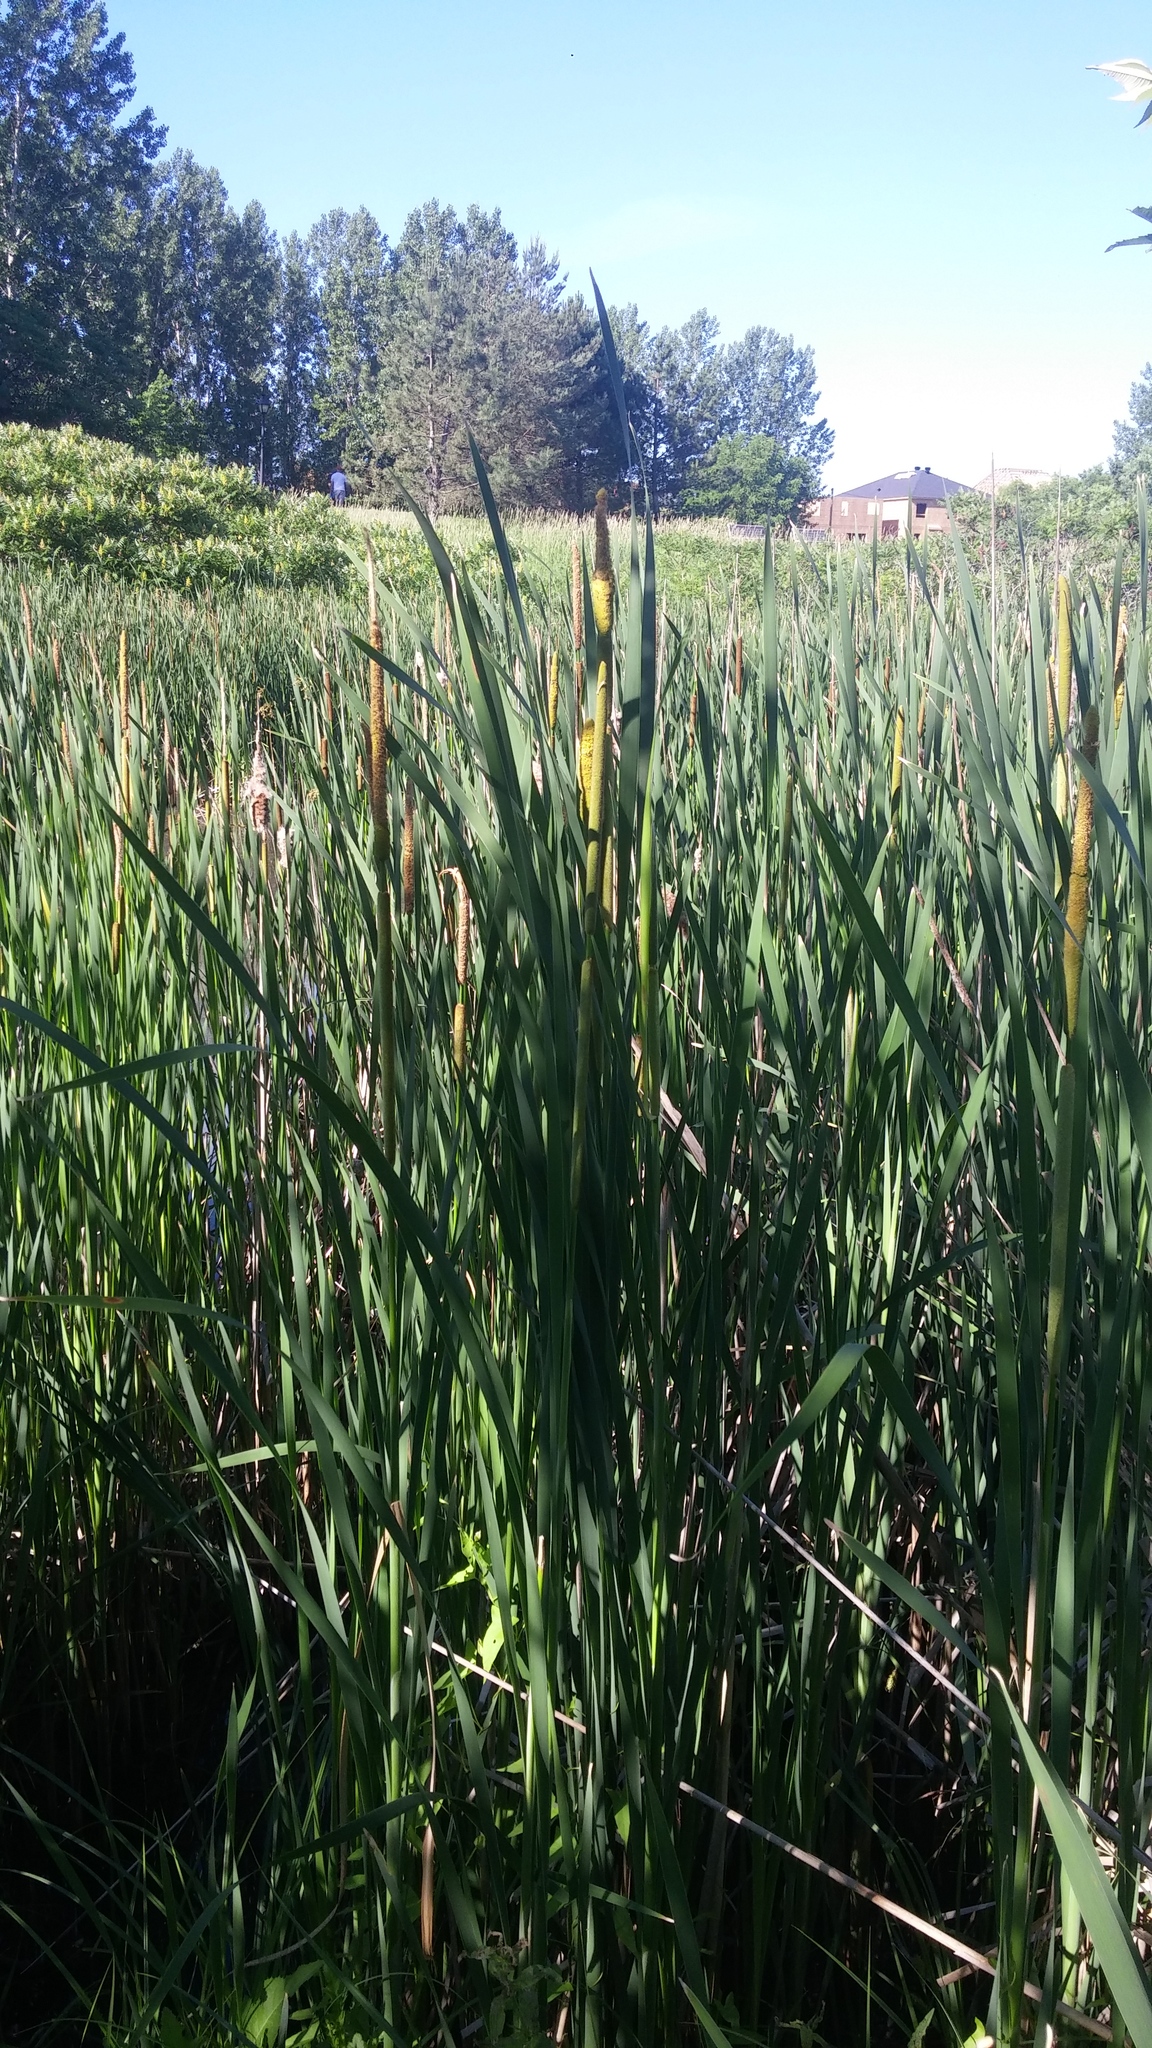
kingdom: Plantae
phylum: Tracheophyta
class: Liliopsida
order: Poales
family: Typhaceae
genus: Typha
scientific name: Typha glauca
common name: Blue cattail
